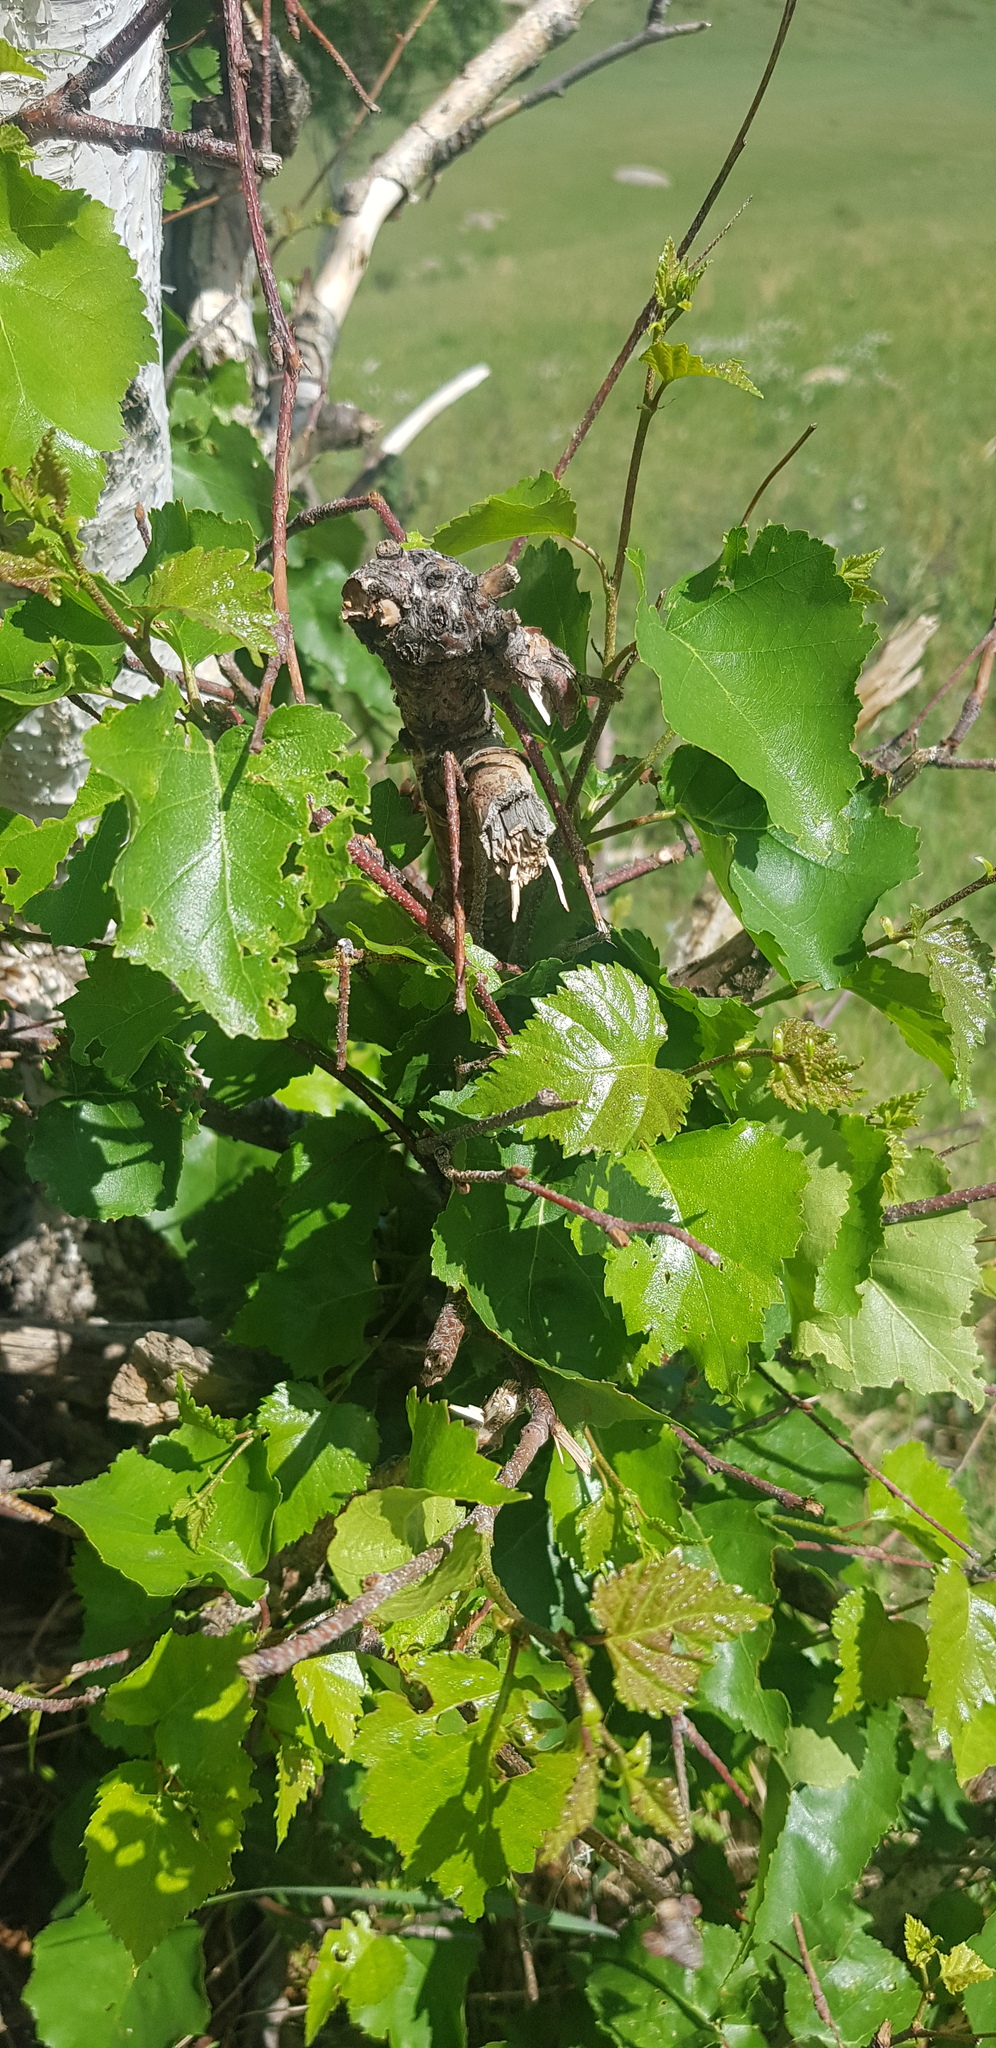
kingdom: Plantae
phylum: Tracheophyta
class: Magnoliopsida
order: Fagales
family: Betulaceae
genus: Betula
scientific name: Betula pendula
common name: Silver birch
